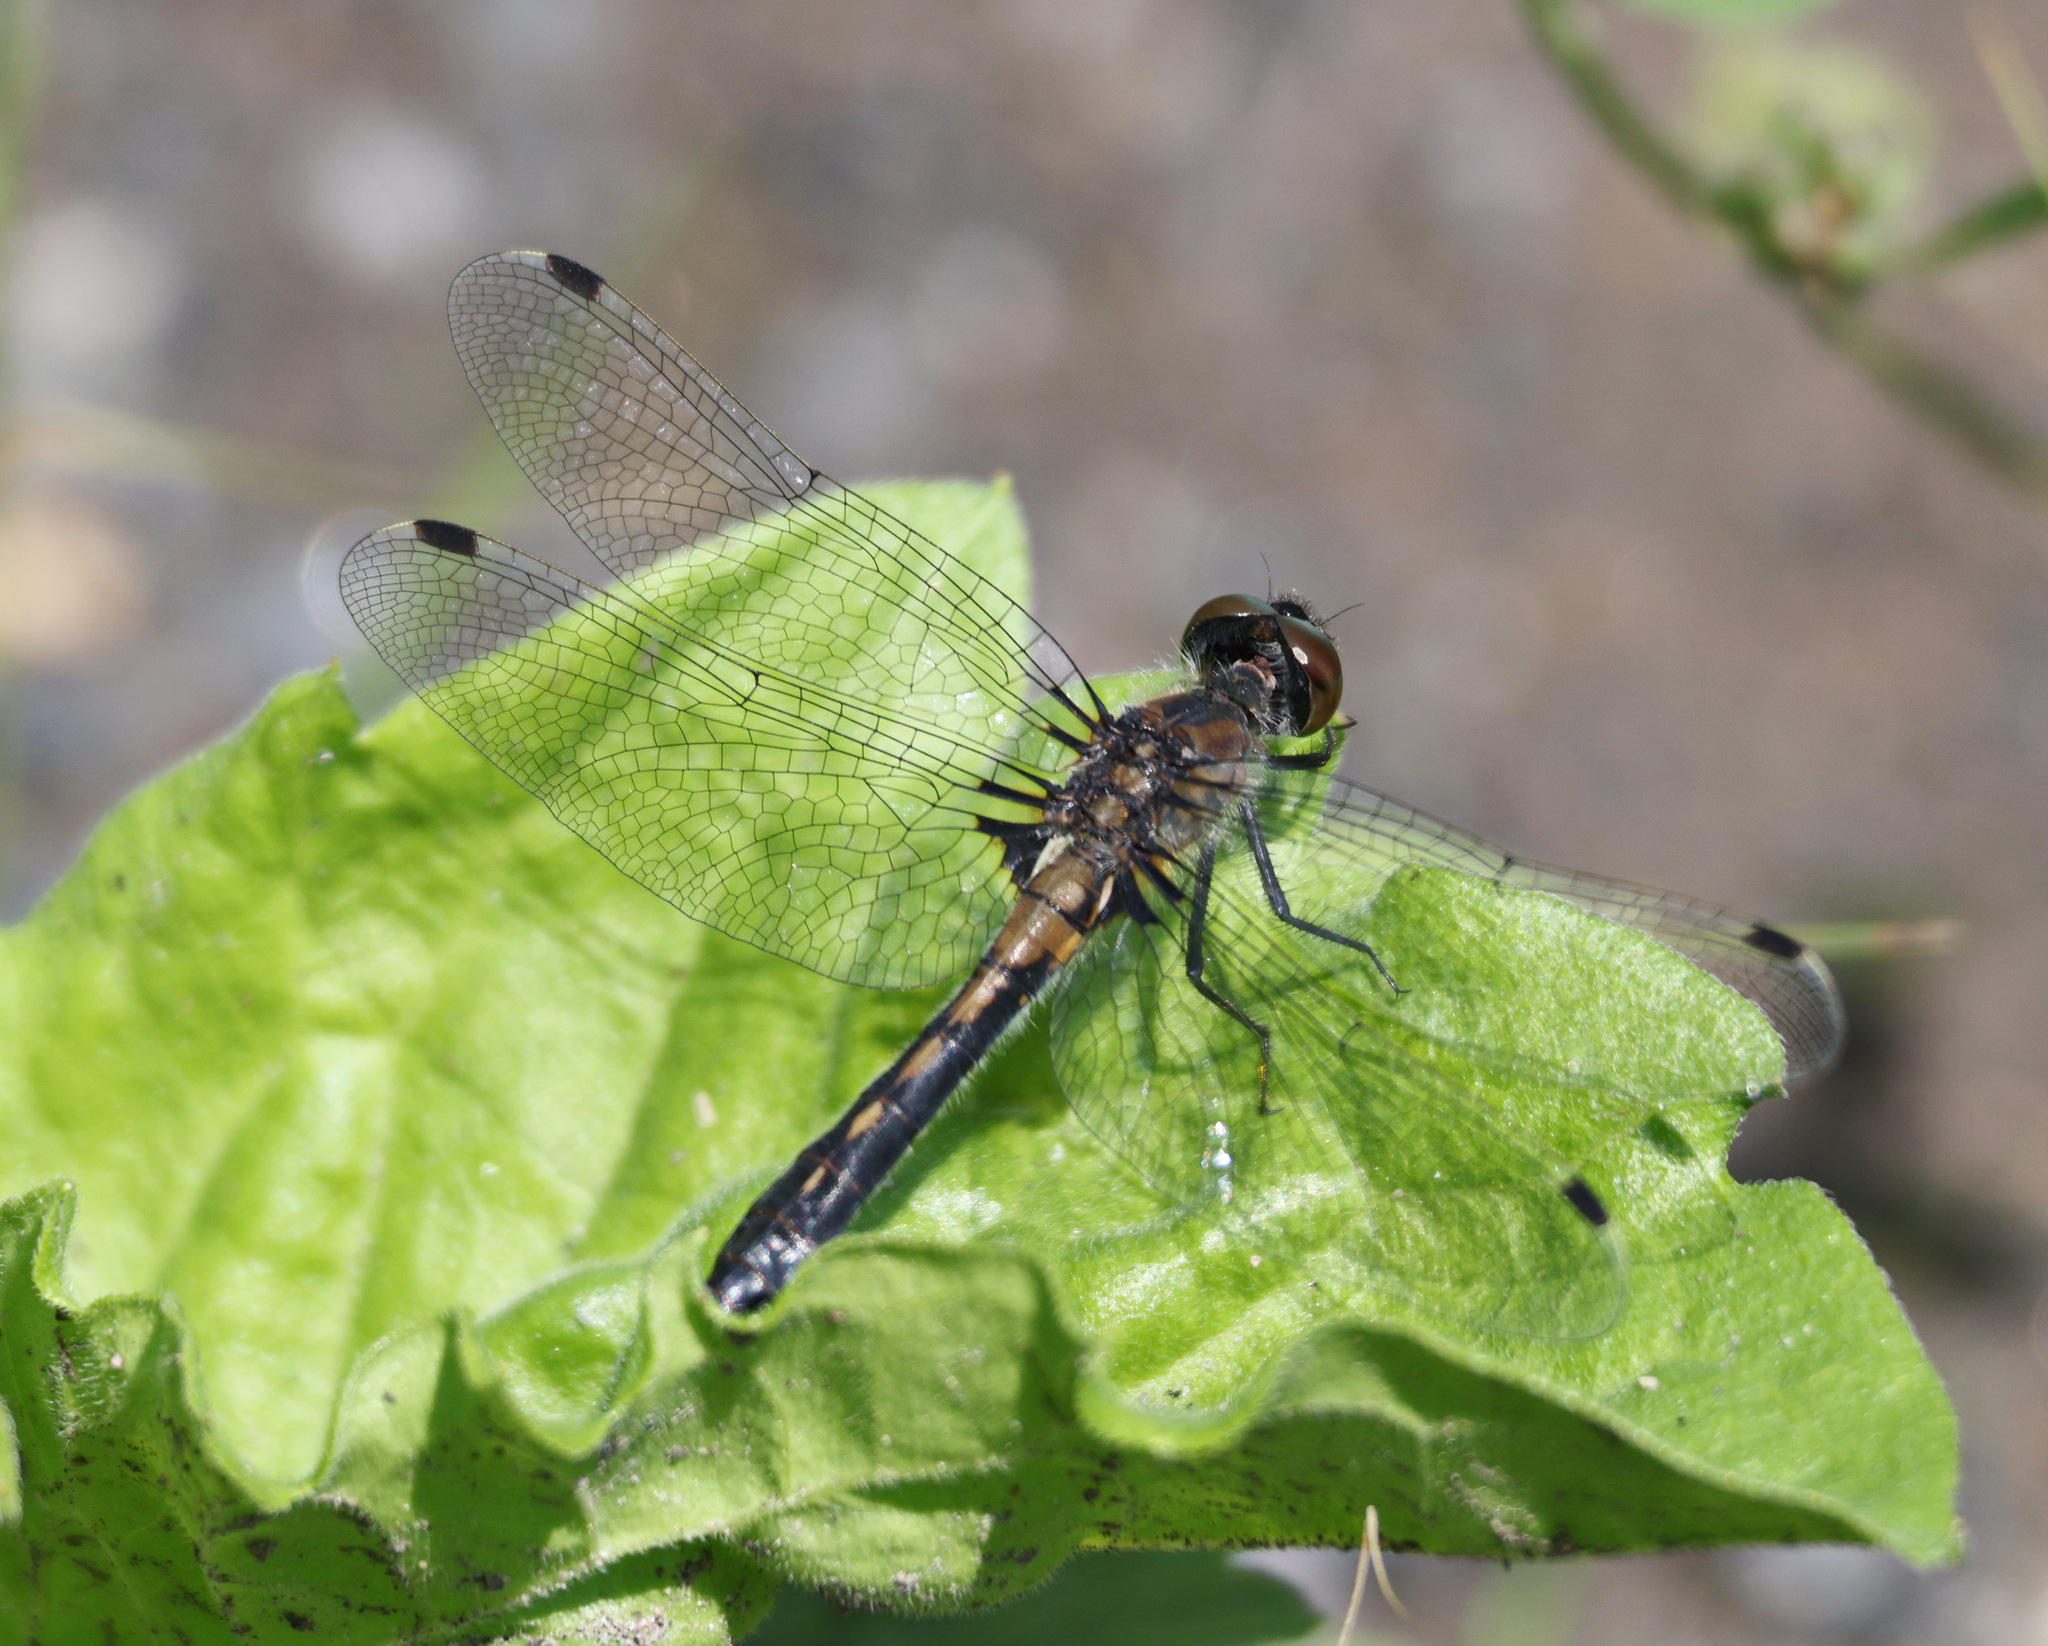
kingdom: Animalia
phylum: Arthropoda
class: Insecta
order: Odonata
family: Libellulidae
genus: Leucorrhinia
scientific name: Leucorrhinia frigida
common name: Frosted whiteface
